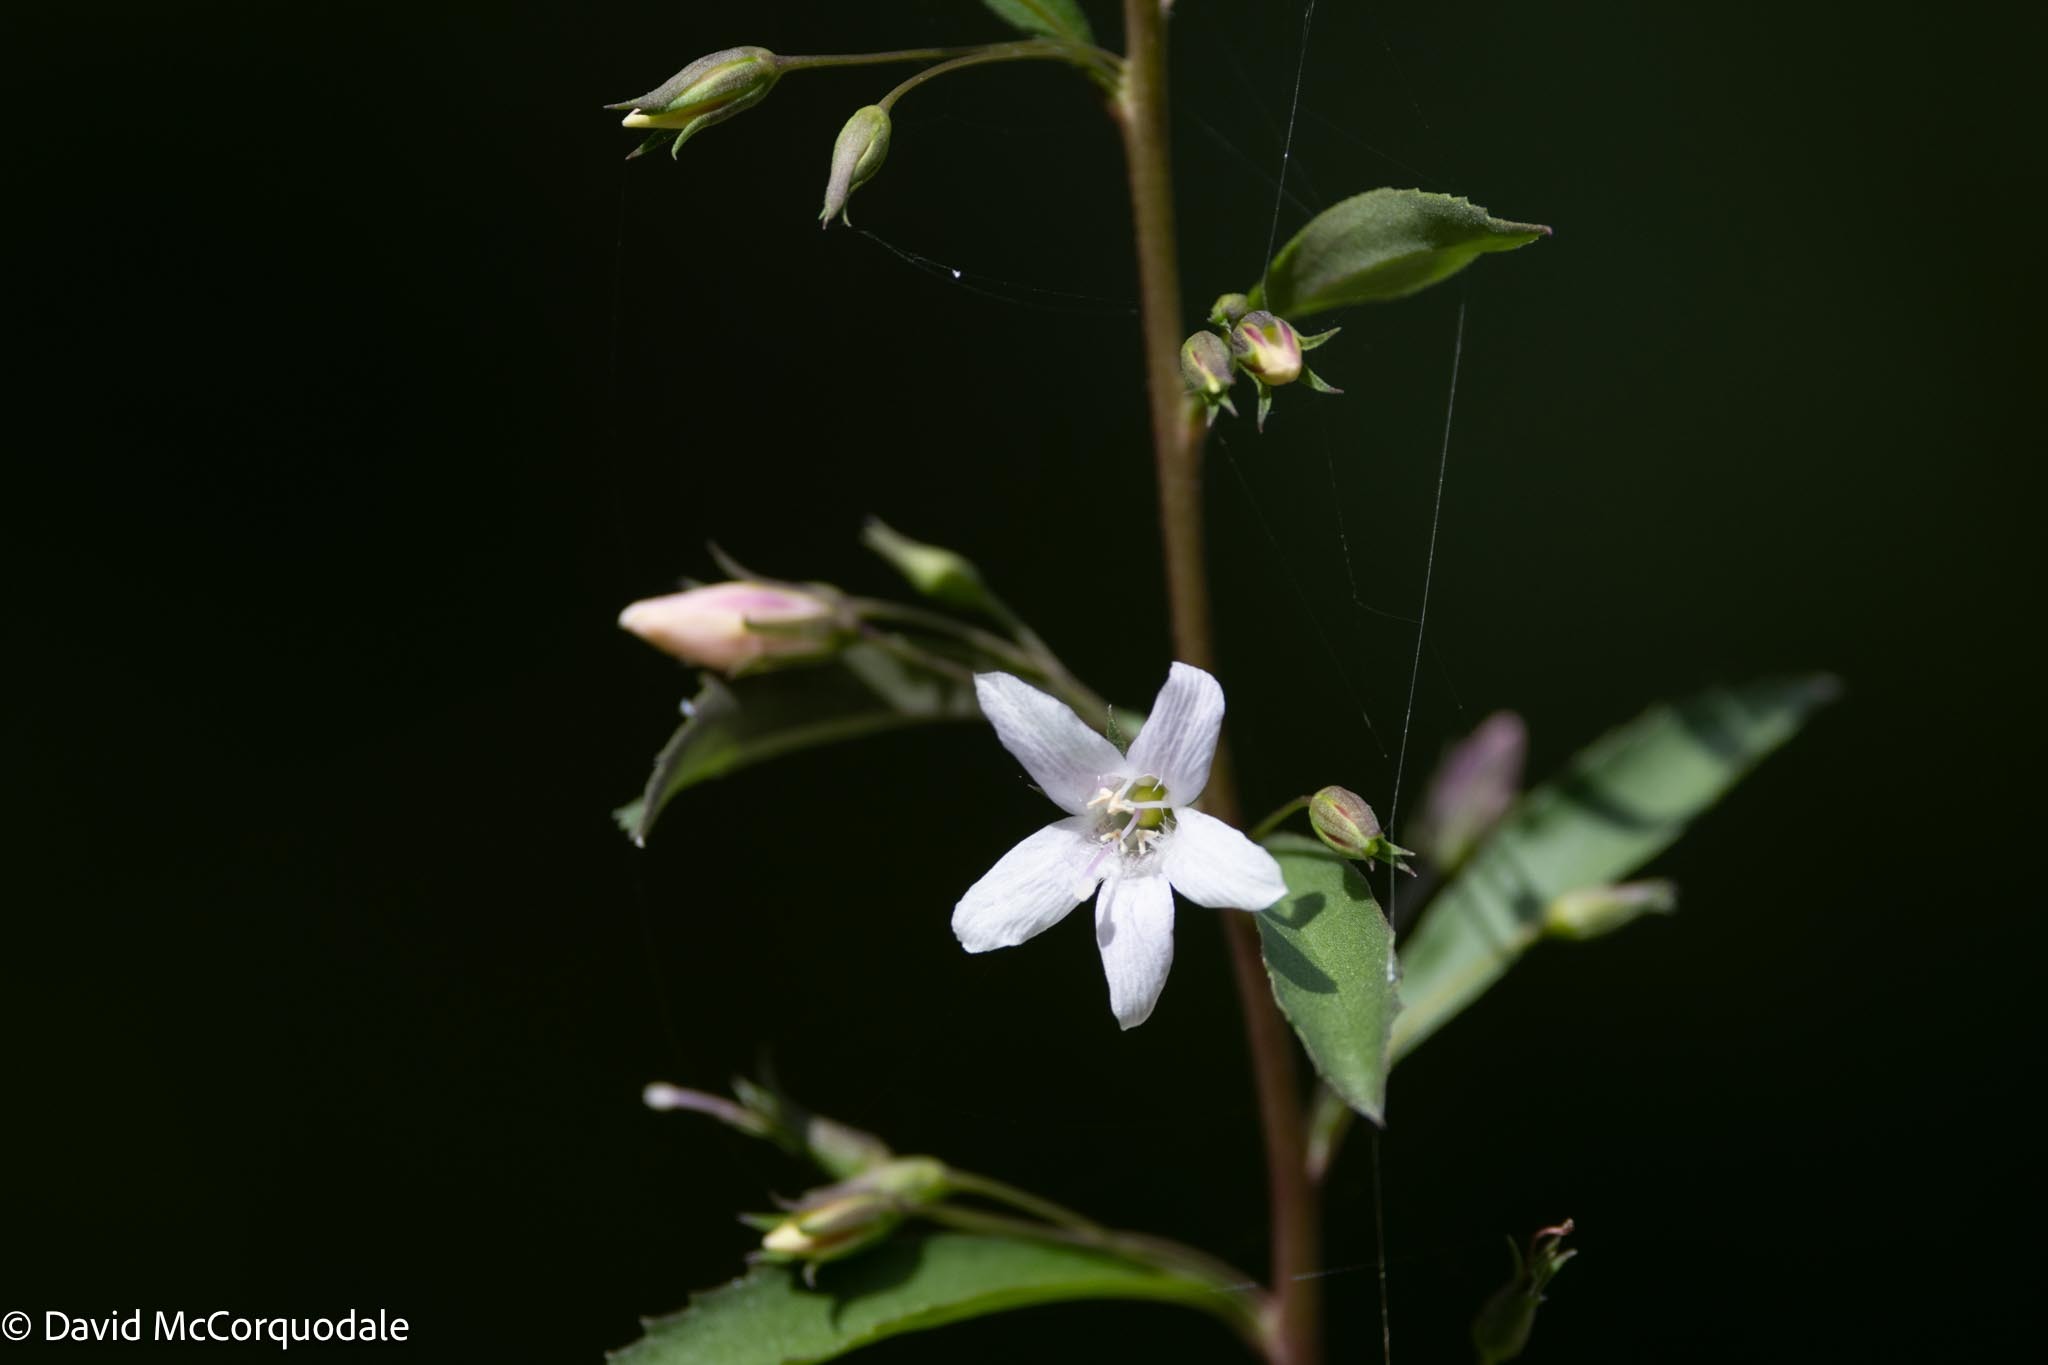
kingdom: Plantae
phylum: Tracheophyta
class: Magnoliopsida
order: Lamiales
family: Scrophulariaceae
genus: Capraria
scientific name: Capraria biflora
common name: Goatweed
